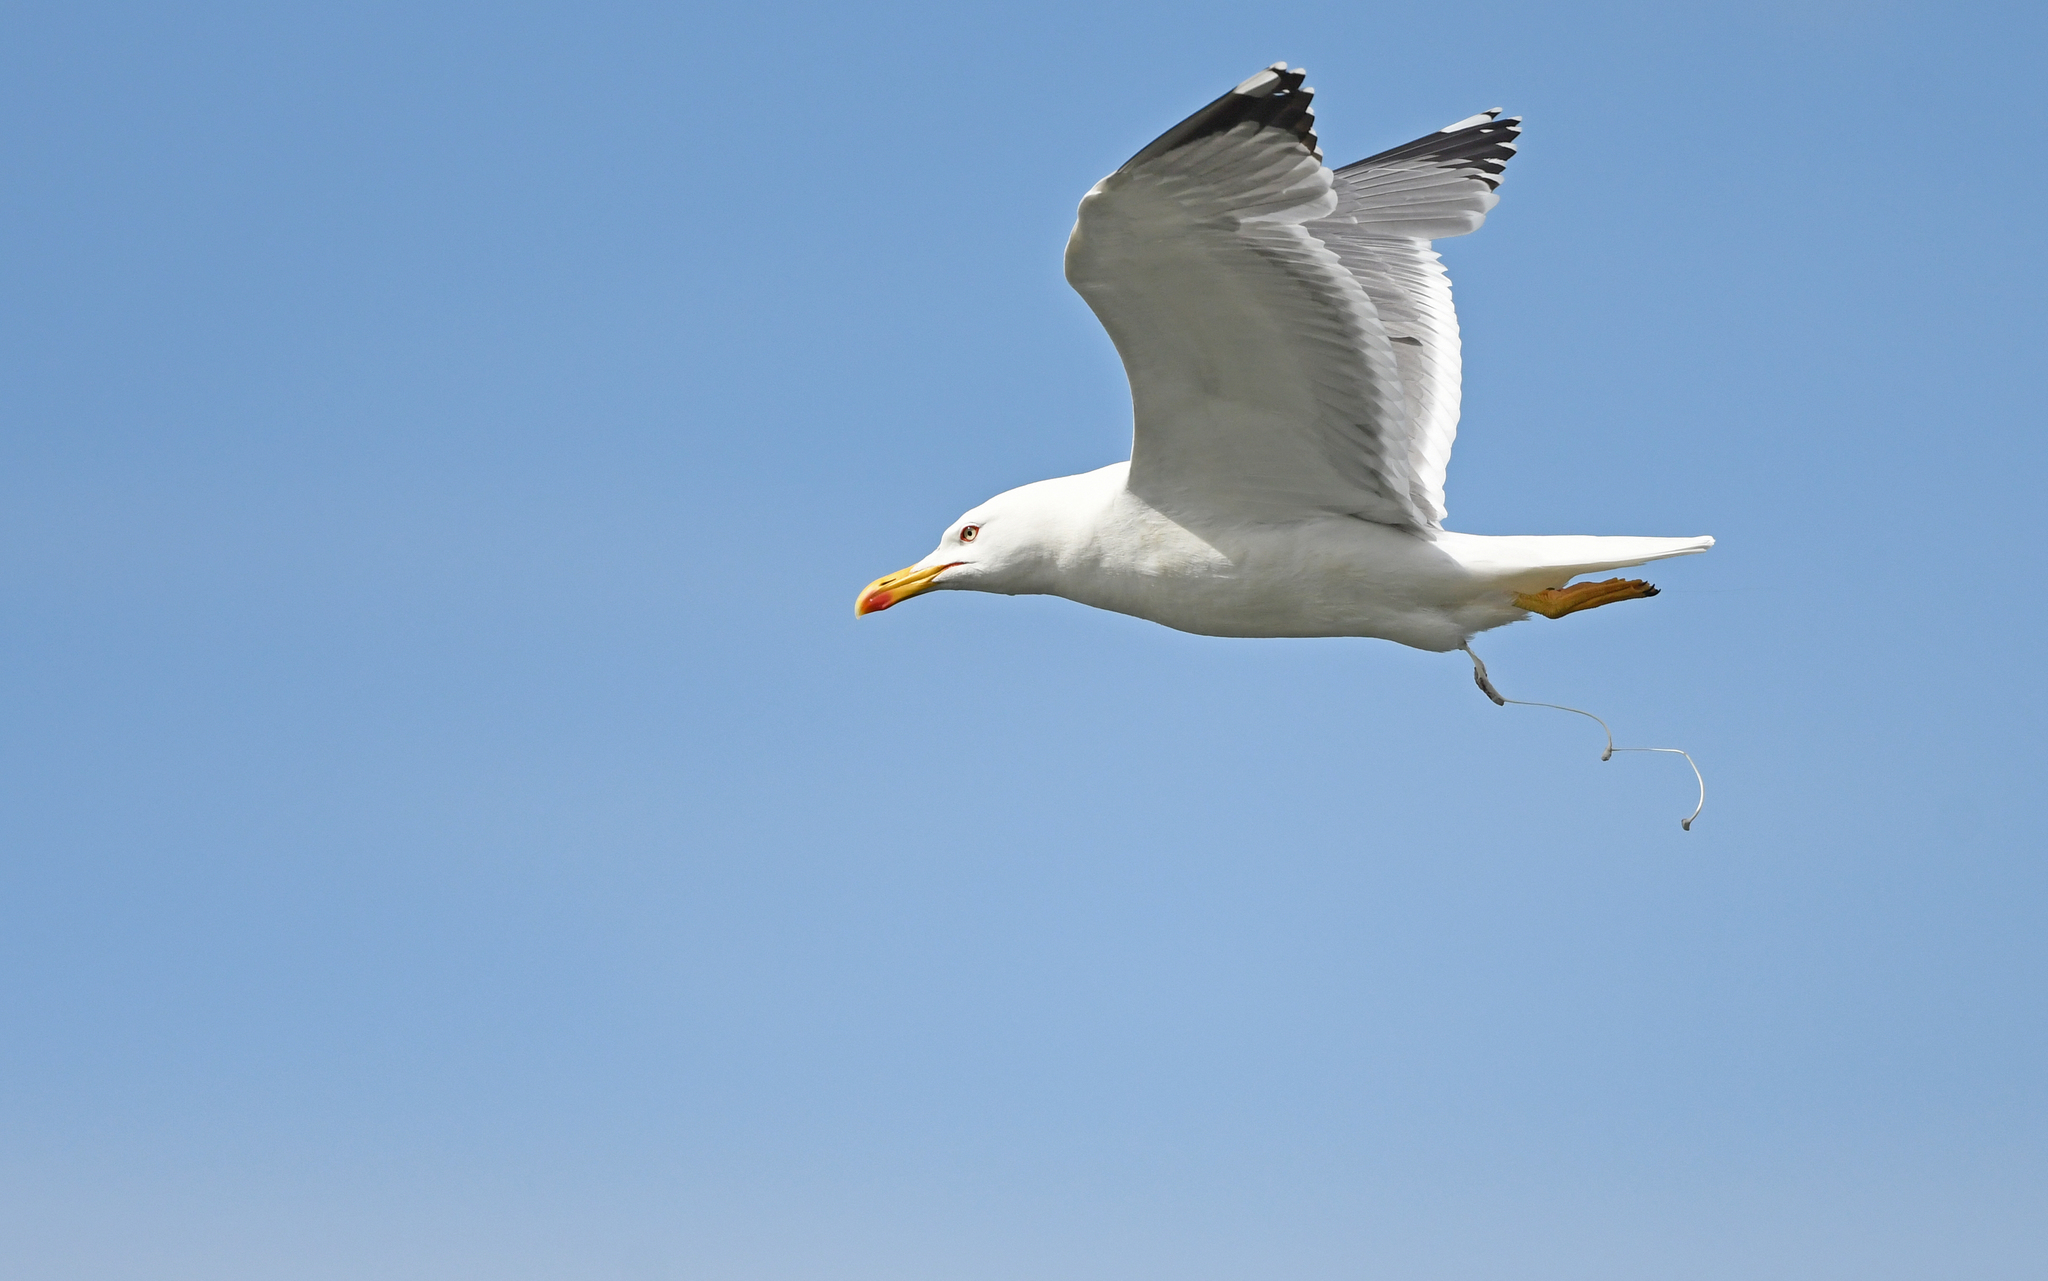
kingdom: Animalia
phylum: Chordata
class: Aves
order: Charadriiformes
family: Laridae
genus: Larus
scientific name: Larus michahellis
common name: Yellow-legged gull
